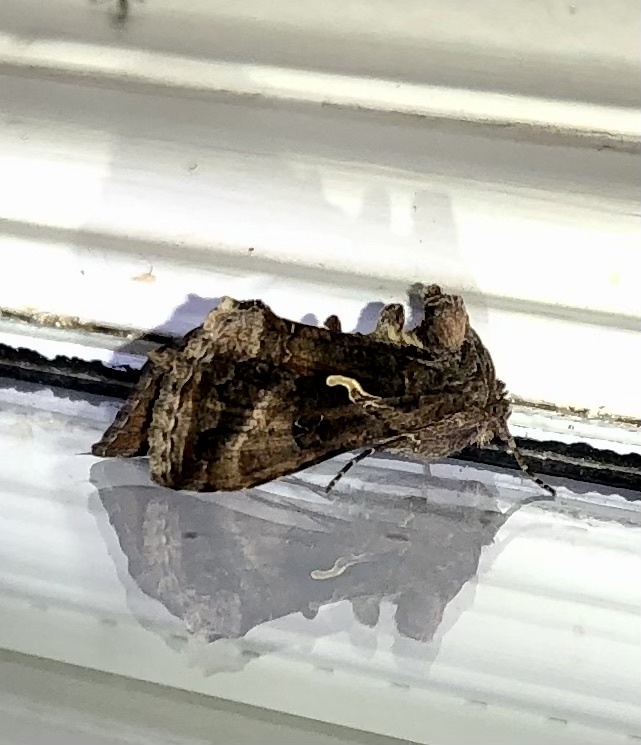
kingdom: Animalia
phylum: Arthropoda
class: Insecta
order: Lepidoptera
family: Noctuidae
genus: Autographa
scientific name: Autographa gamma
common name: Silver y
